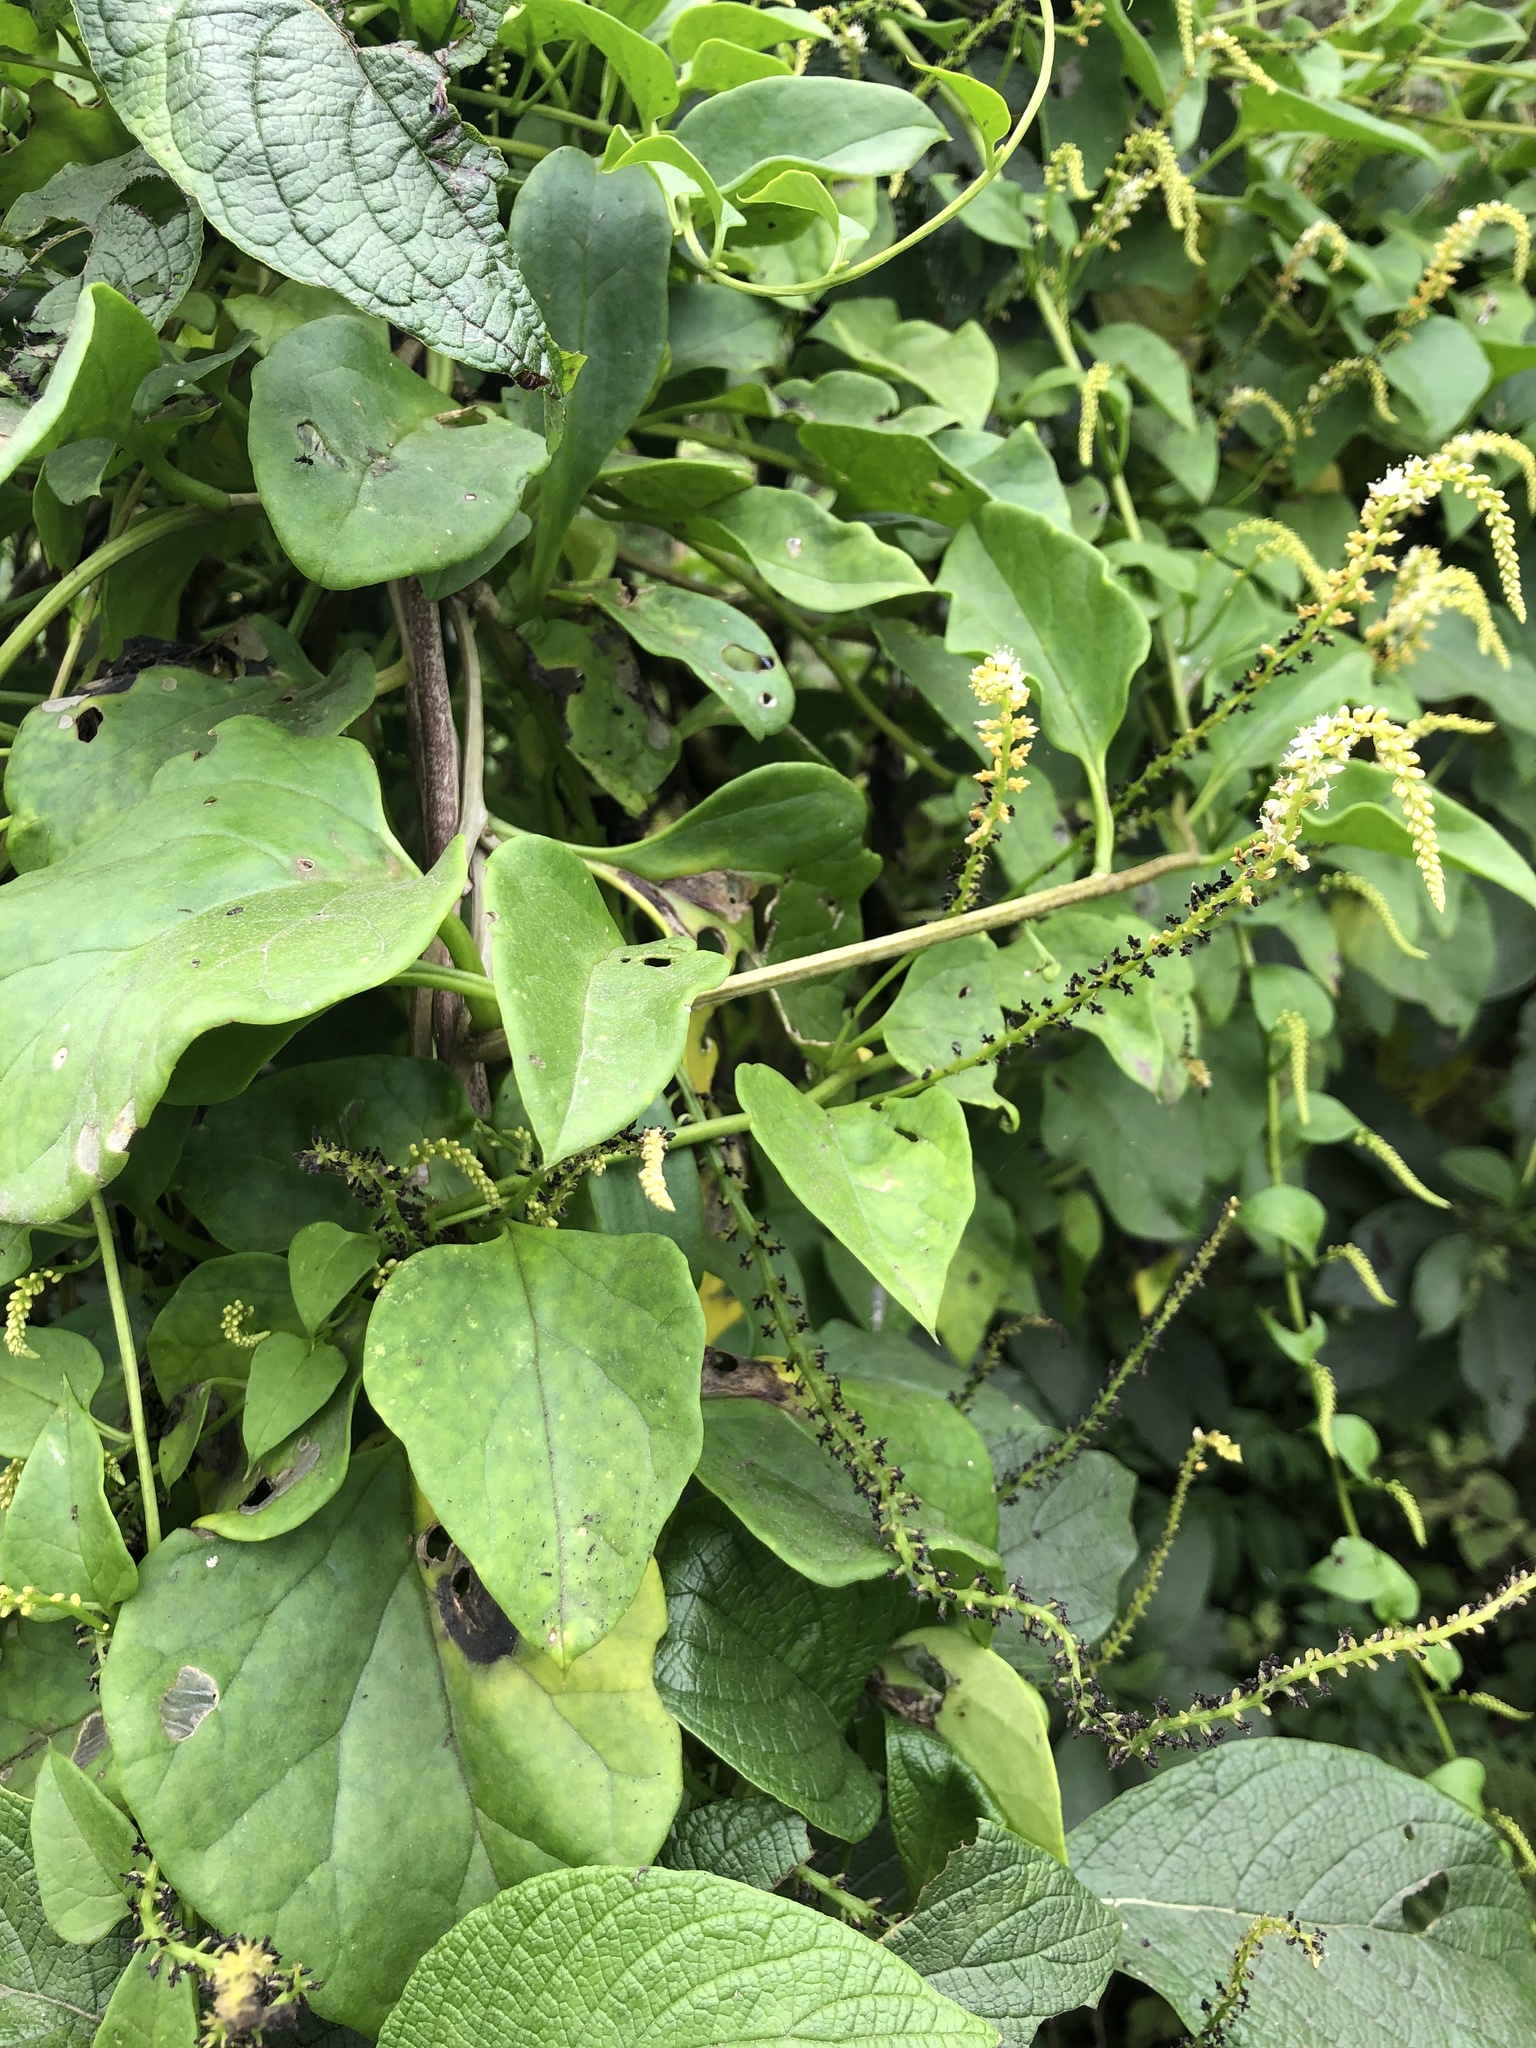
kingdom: Plantae
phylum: Tracheophyta
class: Magnoliopsida
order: Caryophyllales
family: Basellaceae
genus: Anredera
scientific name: Anredera ramosa
